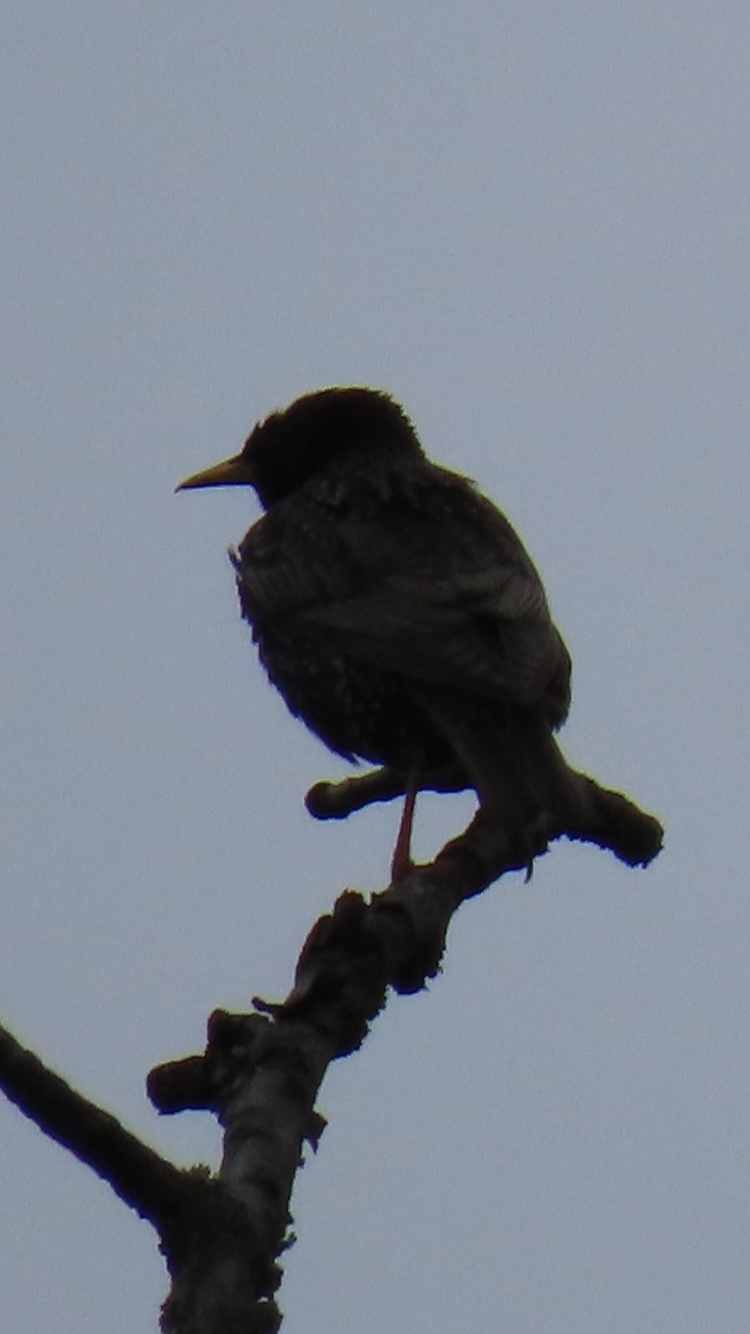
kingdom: Animalia
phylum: Chordata
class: Aves
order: Passeriformes
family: Sturnidae
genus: Sturnus
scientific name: Sturnus vulgaris
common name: Common starling
